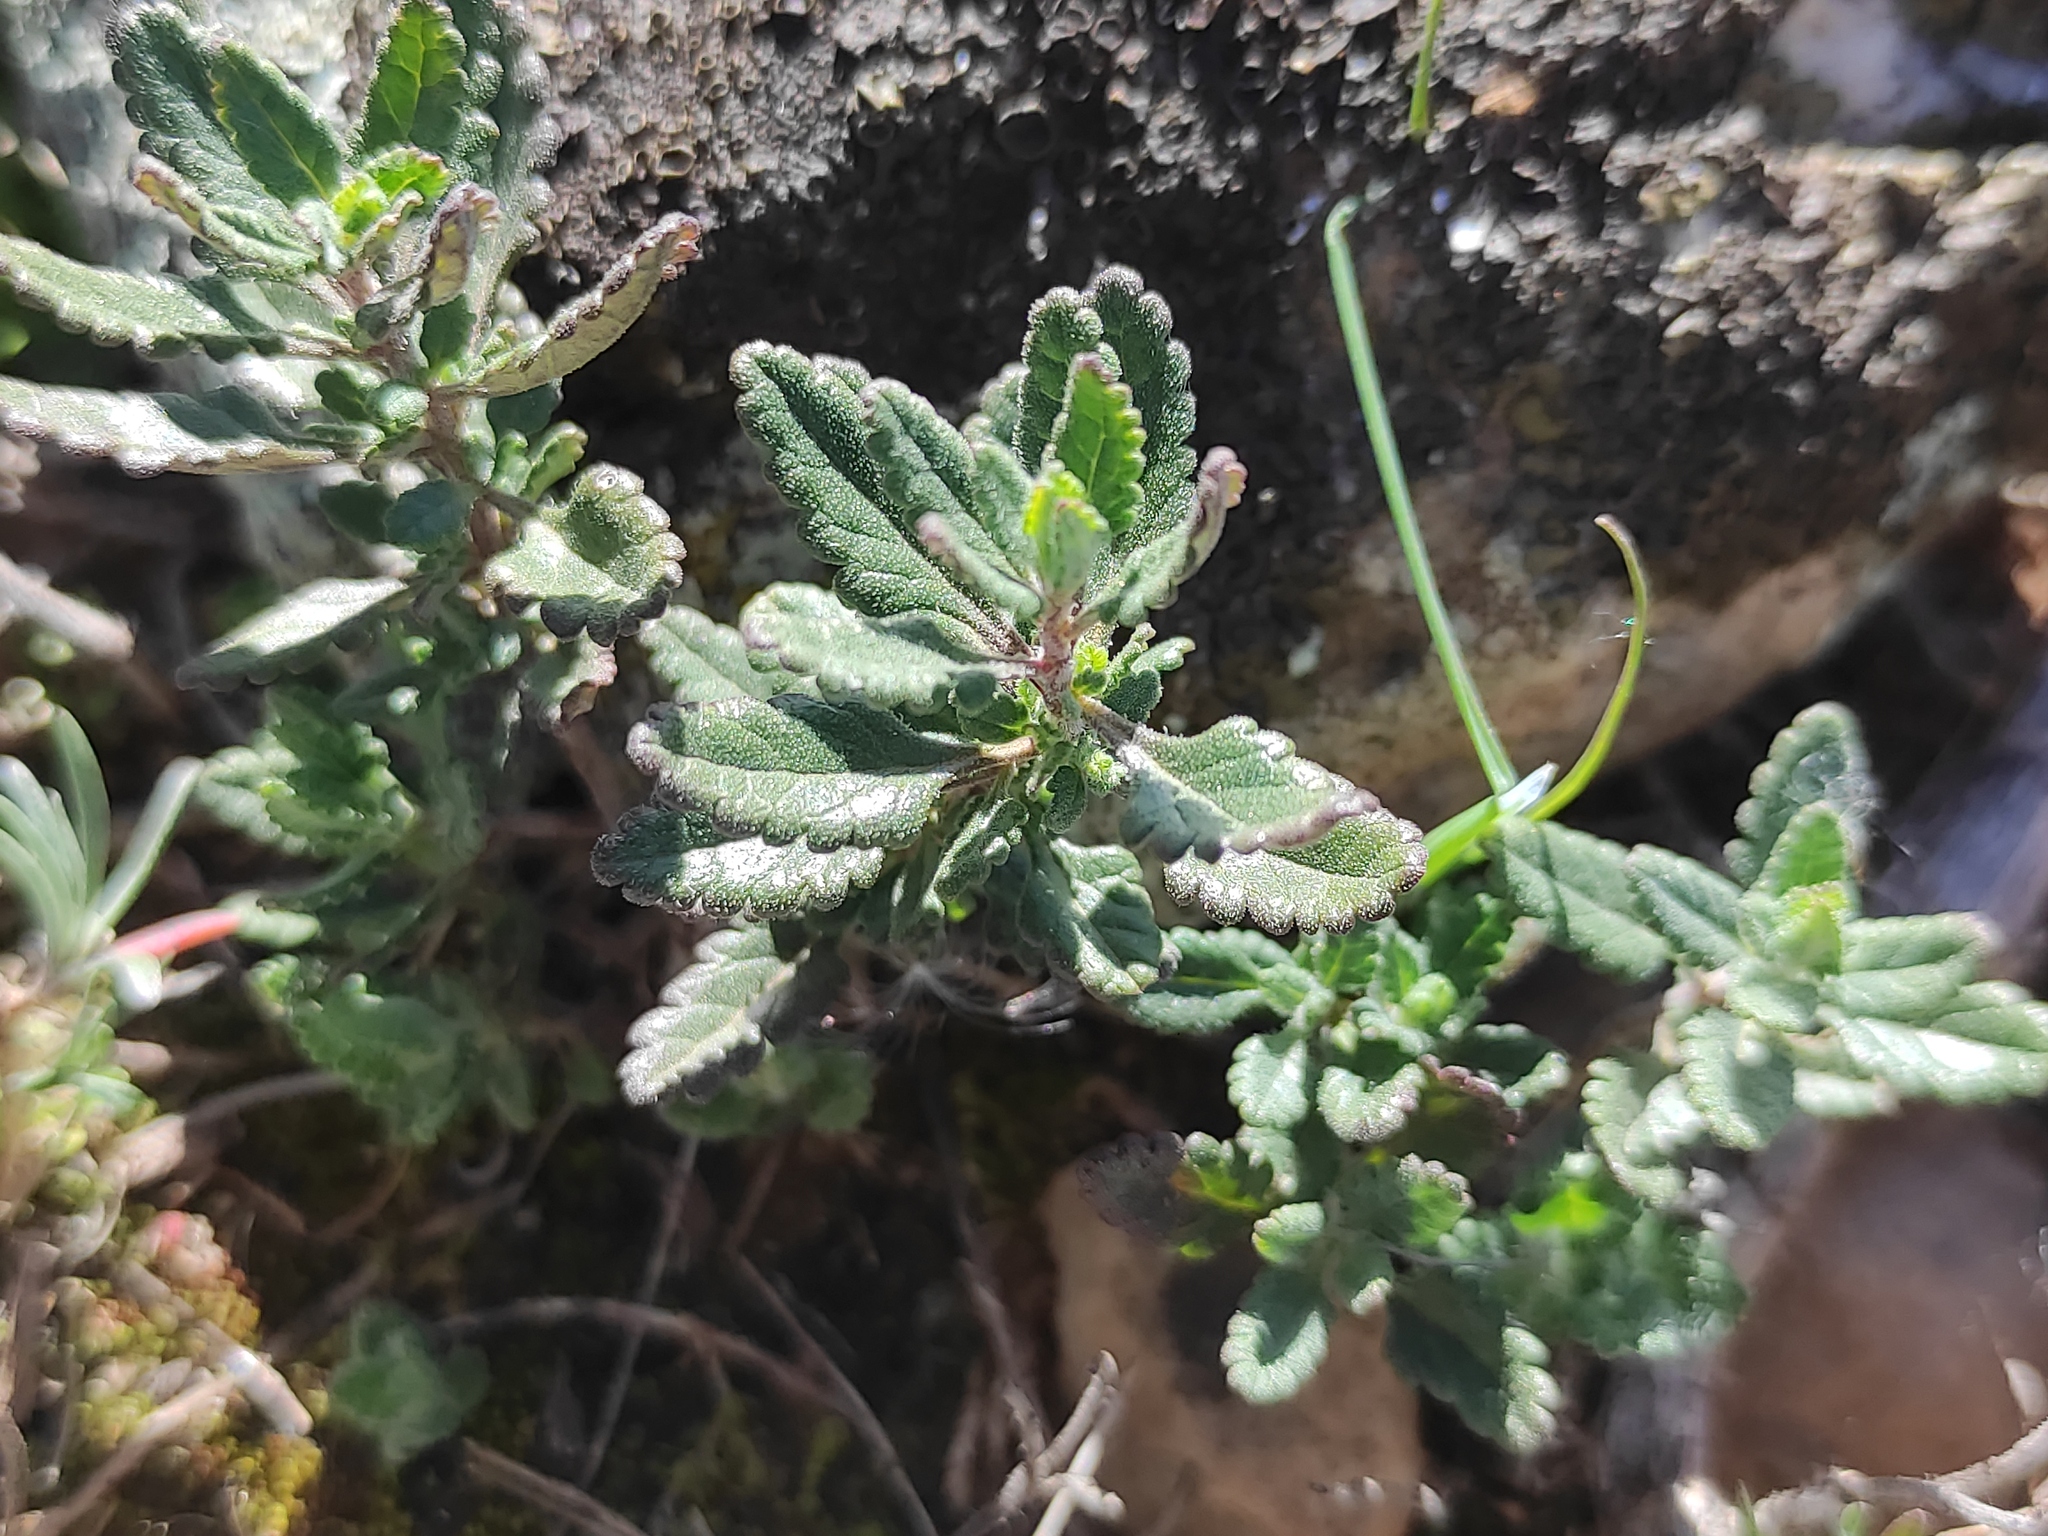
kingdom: Plantae
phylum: Tracheophyta
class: Magnoliopsida
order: Lamiales
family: Lamiaceae
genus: Teucrium
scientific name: Teucrium chamaedrys
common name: Wall germander
